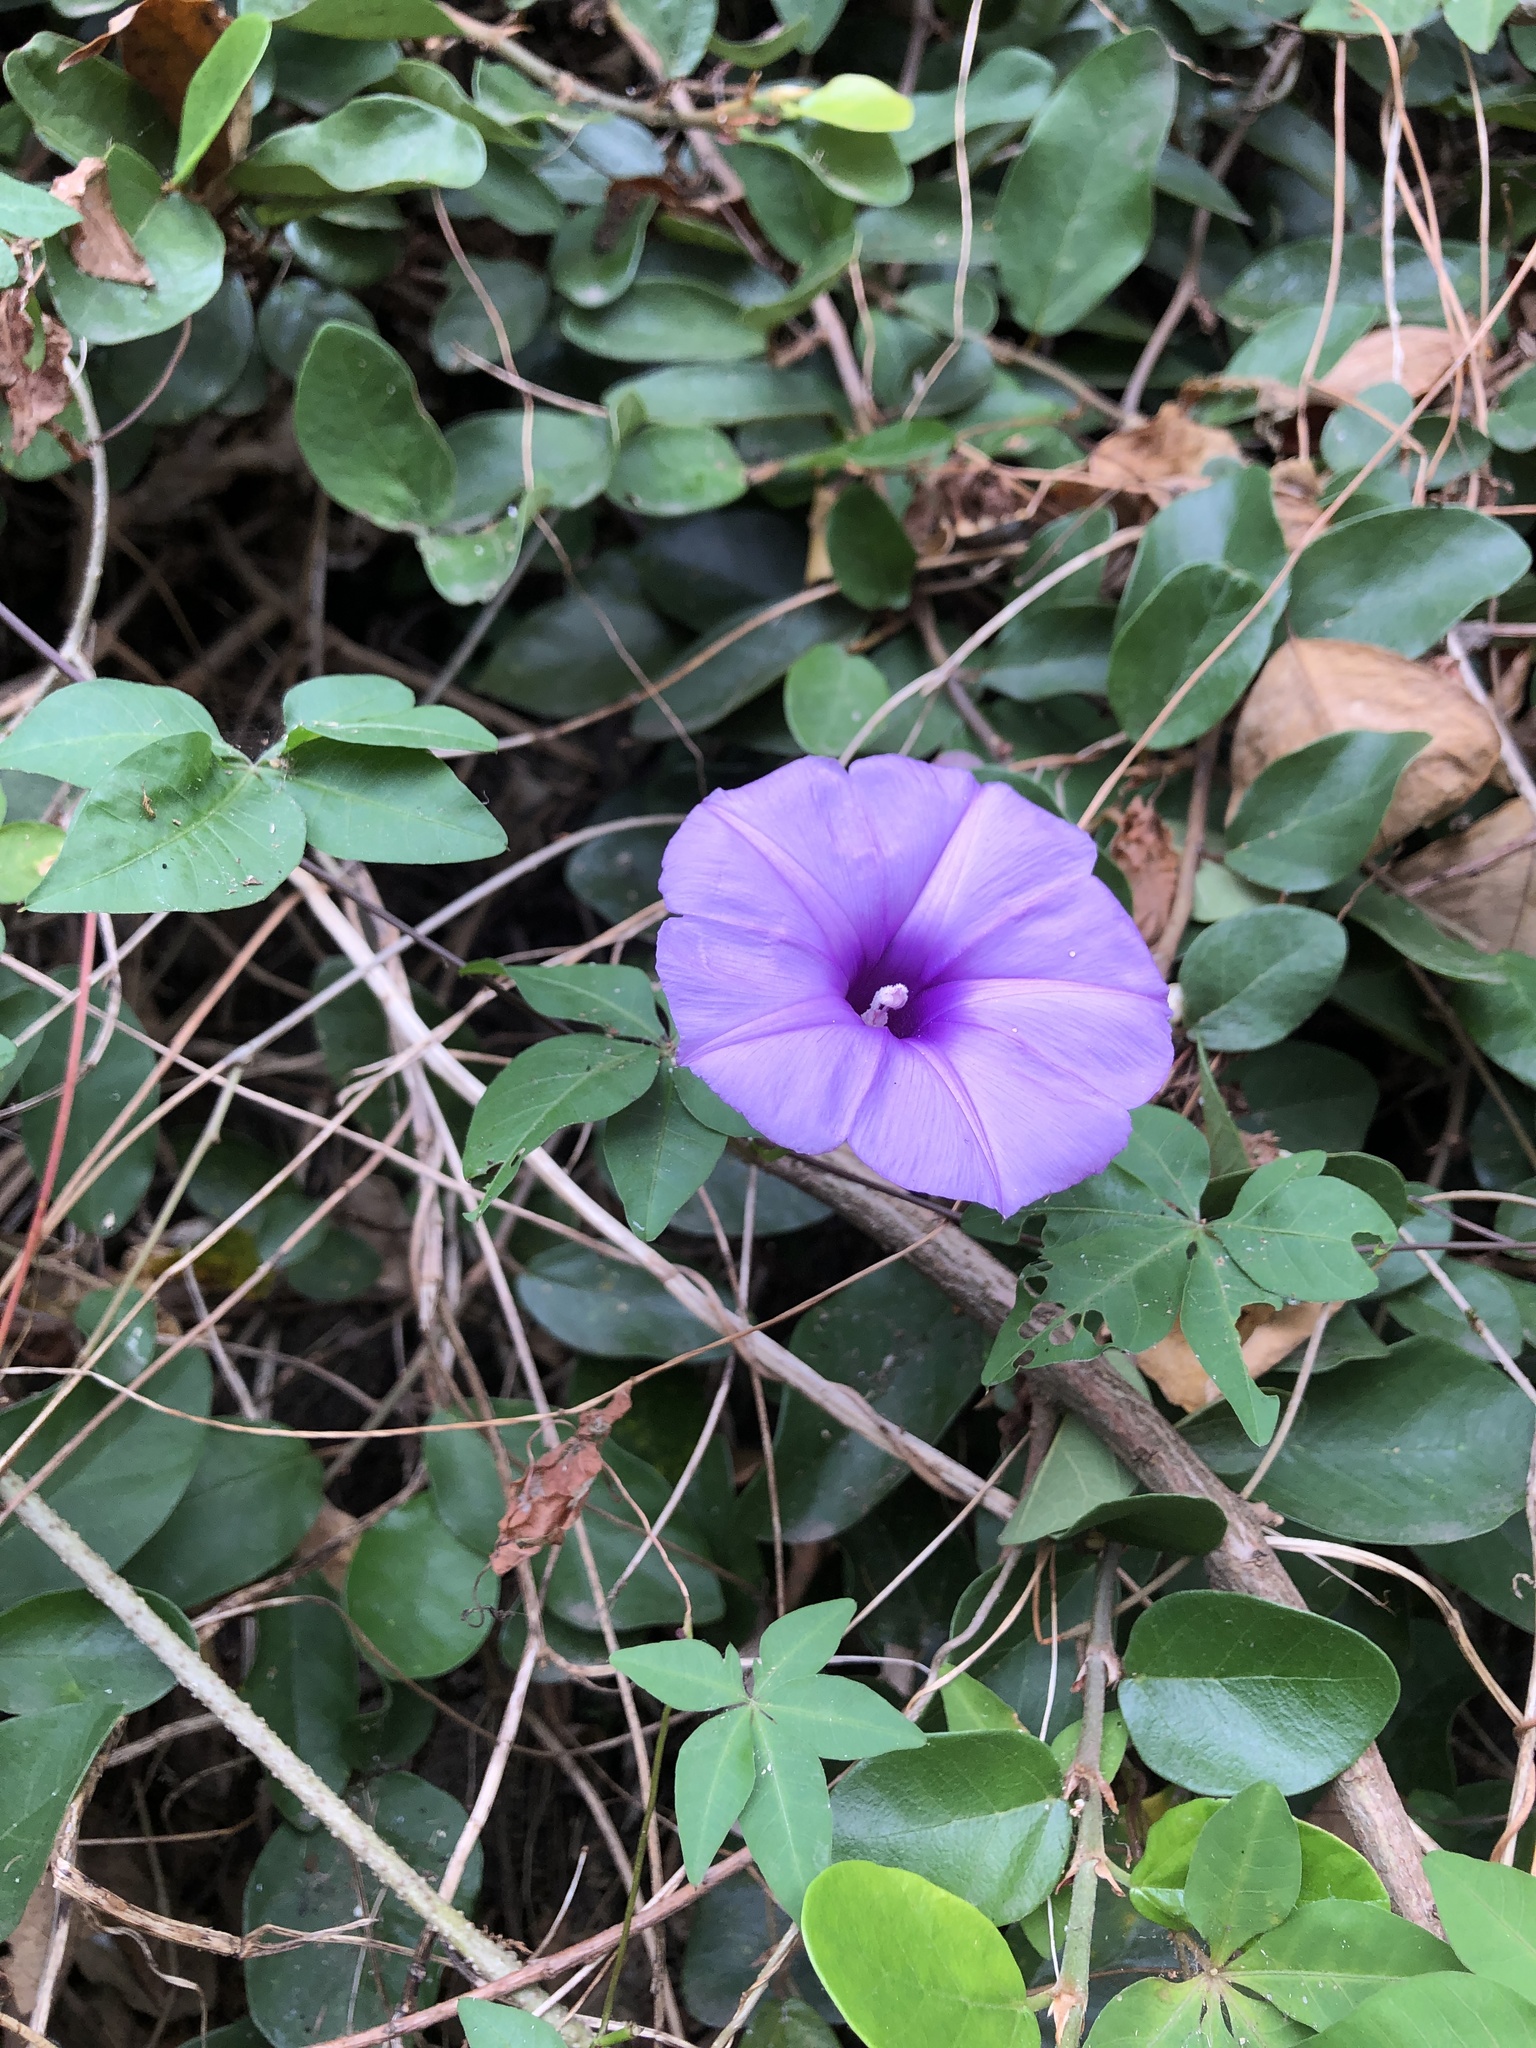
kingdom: Plantae
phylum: Tracheophyta
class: Magnoliopsida
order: Solanales
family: Convolvulaceae
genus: Ipomoea
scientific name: Ipomoea cairica
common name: Mile a minute vine
